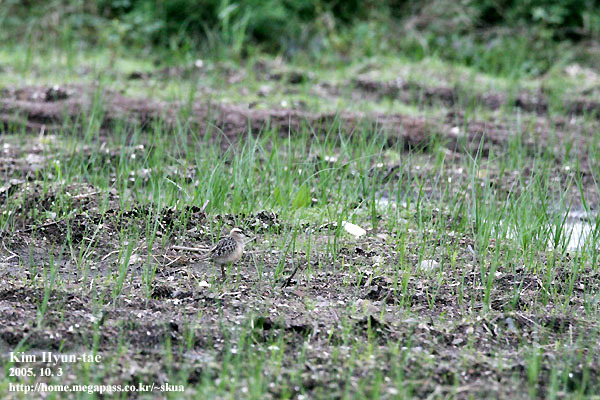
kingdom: Animalia
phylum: Chordata
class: Aves
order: Charadriiformes
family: Charadriidae
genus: Charadrius
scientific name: Charadrius morinellus
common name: Eurasian dotterel
